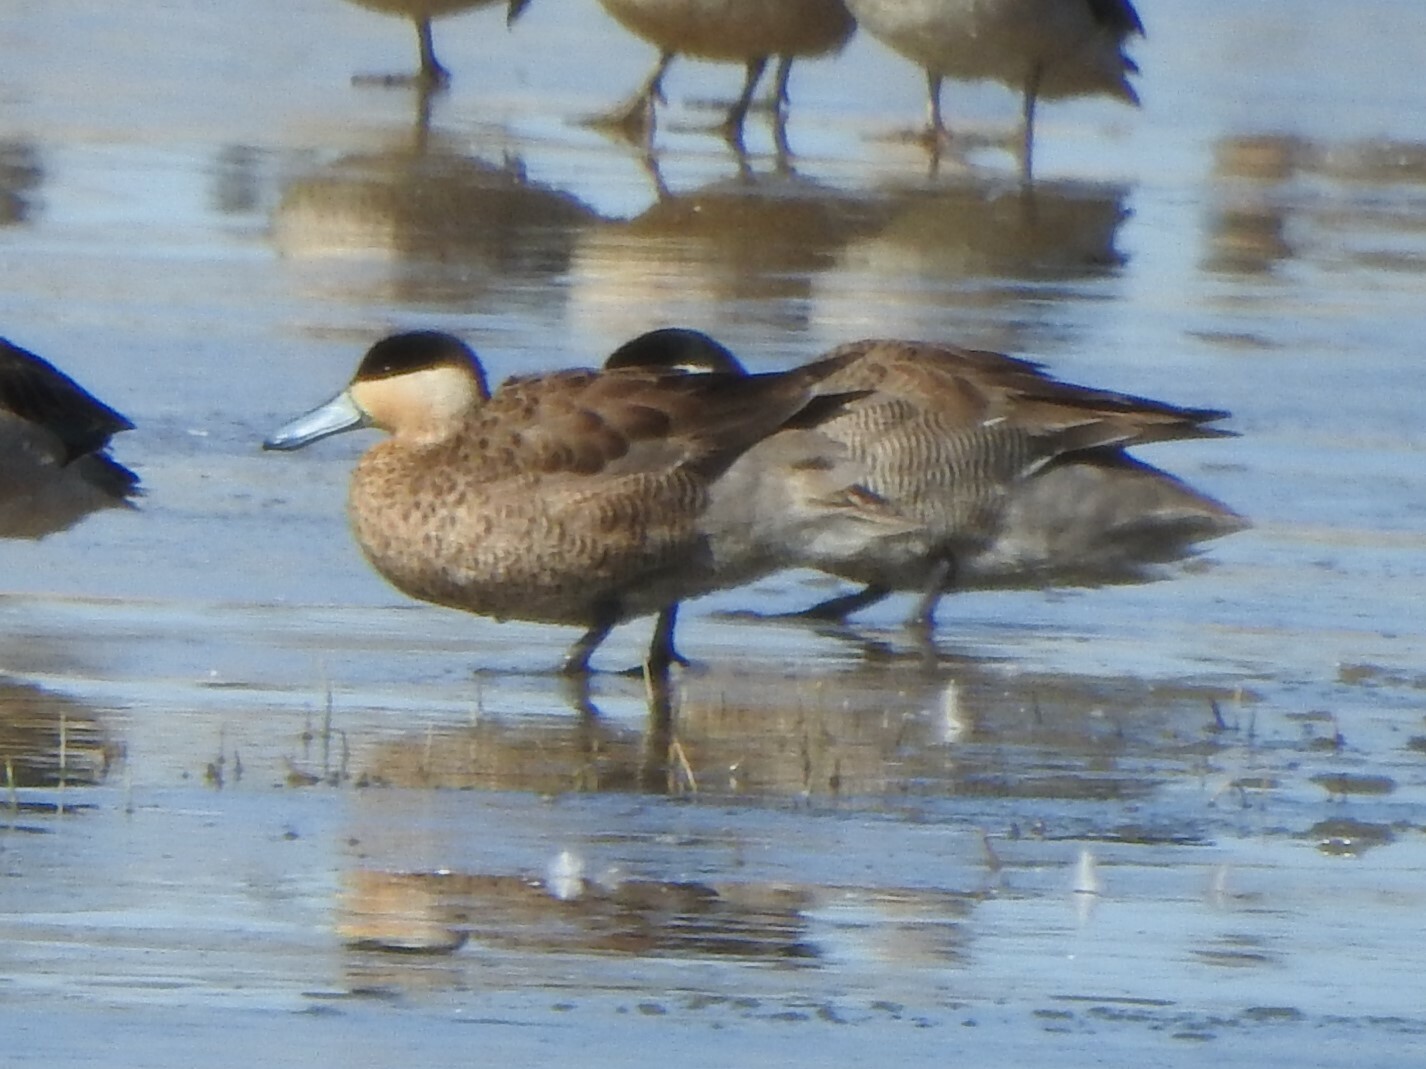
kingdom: Animalia
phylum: Chordata
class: Aves
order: Anseriformes
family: Anatidae
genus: Spatula
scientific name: Spatula puna
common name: Puna teal
